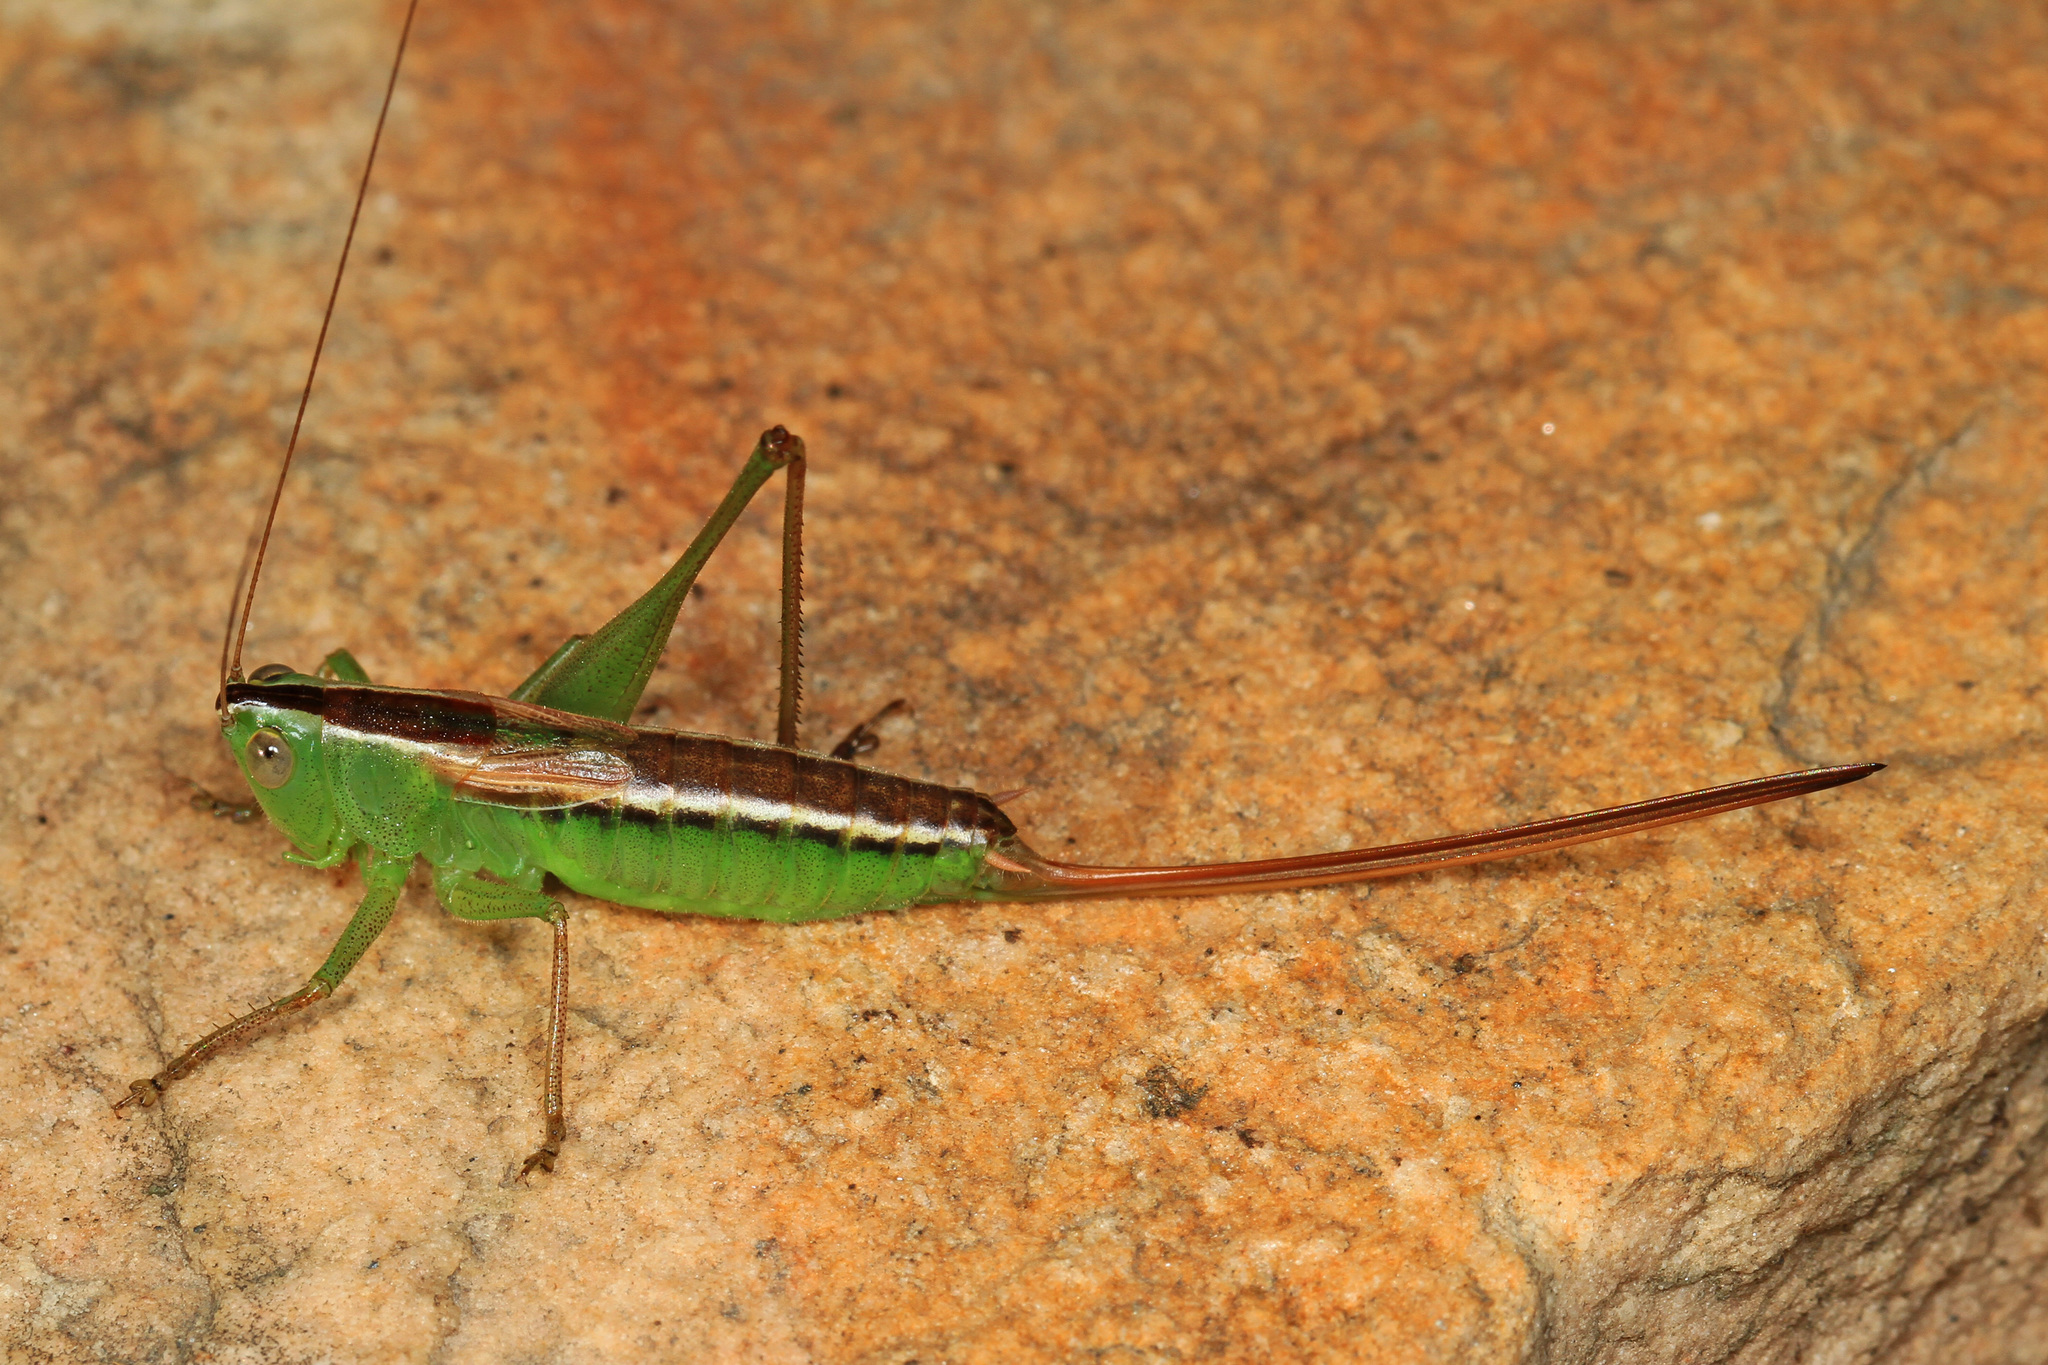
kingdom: Animalia
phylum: Arthropoda
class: Insecta
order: Orthoptera
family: Tettigoniidae
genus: Conocephalus
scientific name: Conocephalus strictus
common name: Straight-lanced katydid
